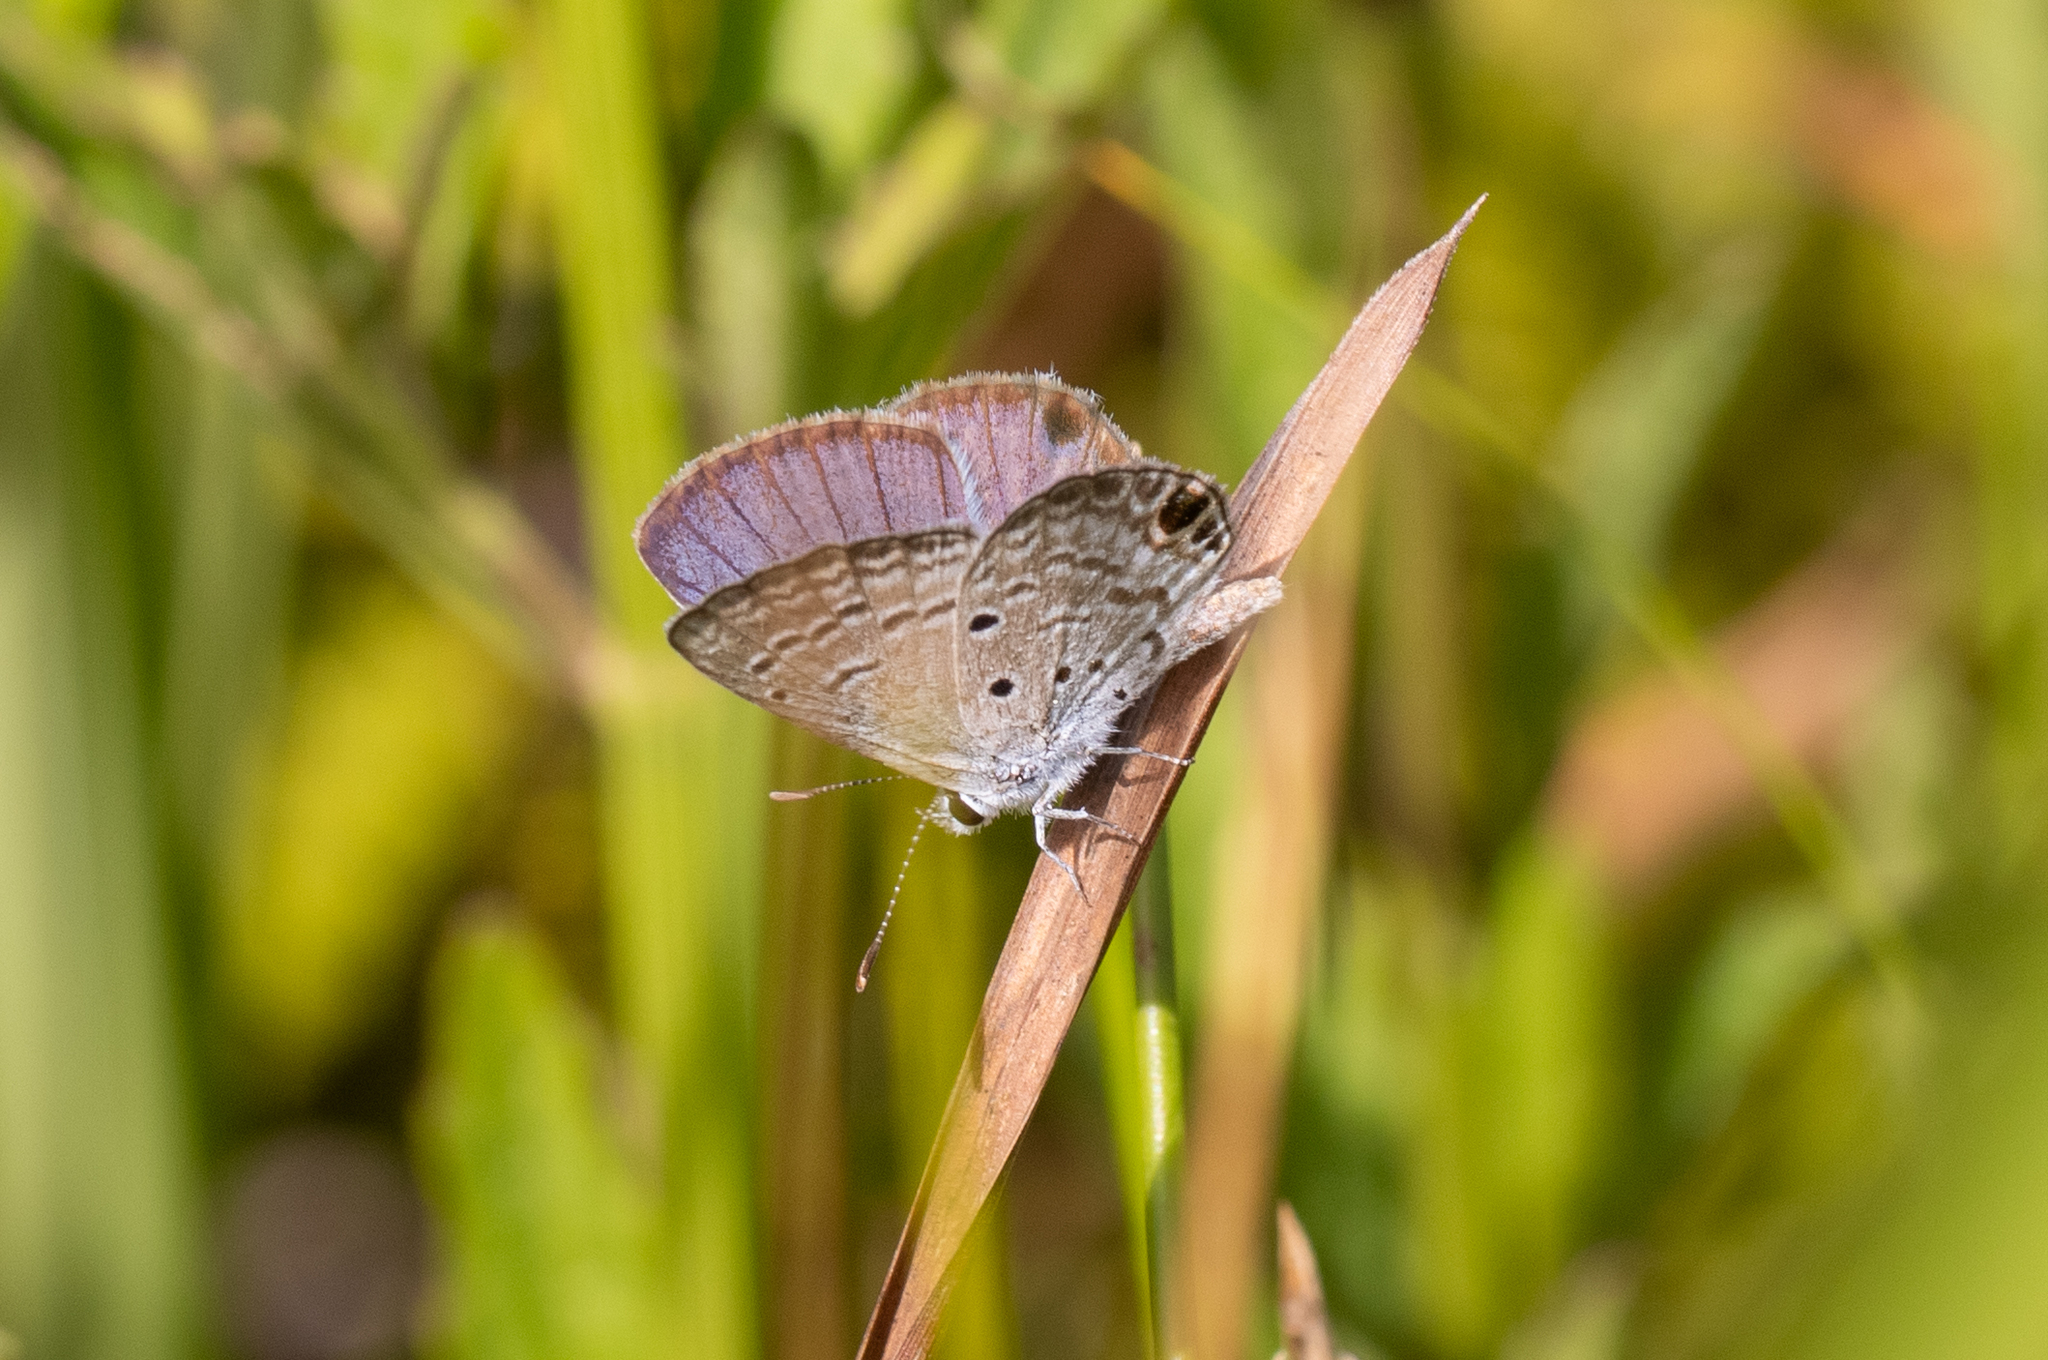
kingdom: Animalia
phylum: Arthropoda
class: Insecta
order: Lepidoptera
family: Lycaenidae
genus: Hemiargus
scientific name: Hemiargus ceraunus
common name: Ceraunus blue
